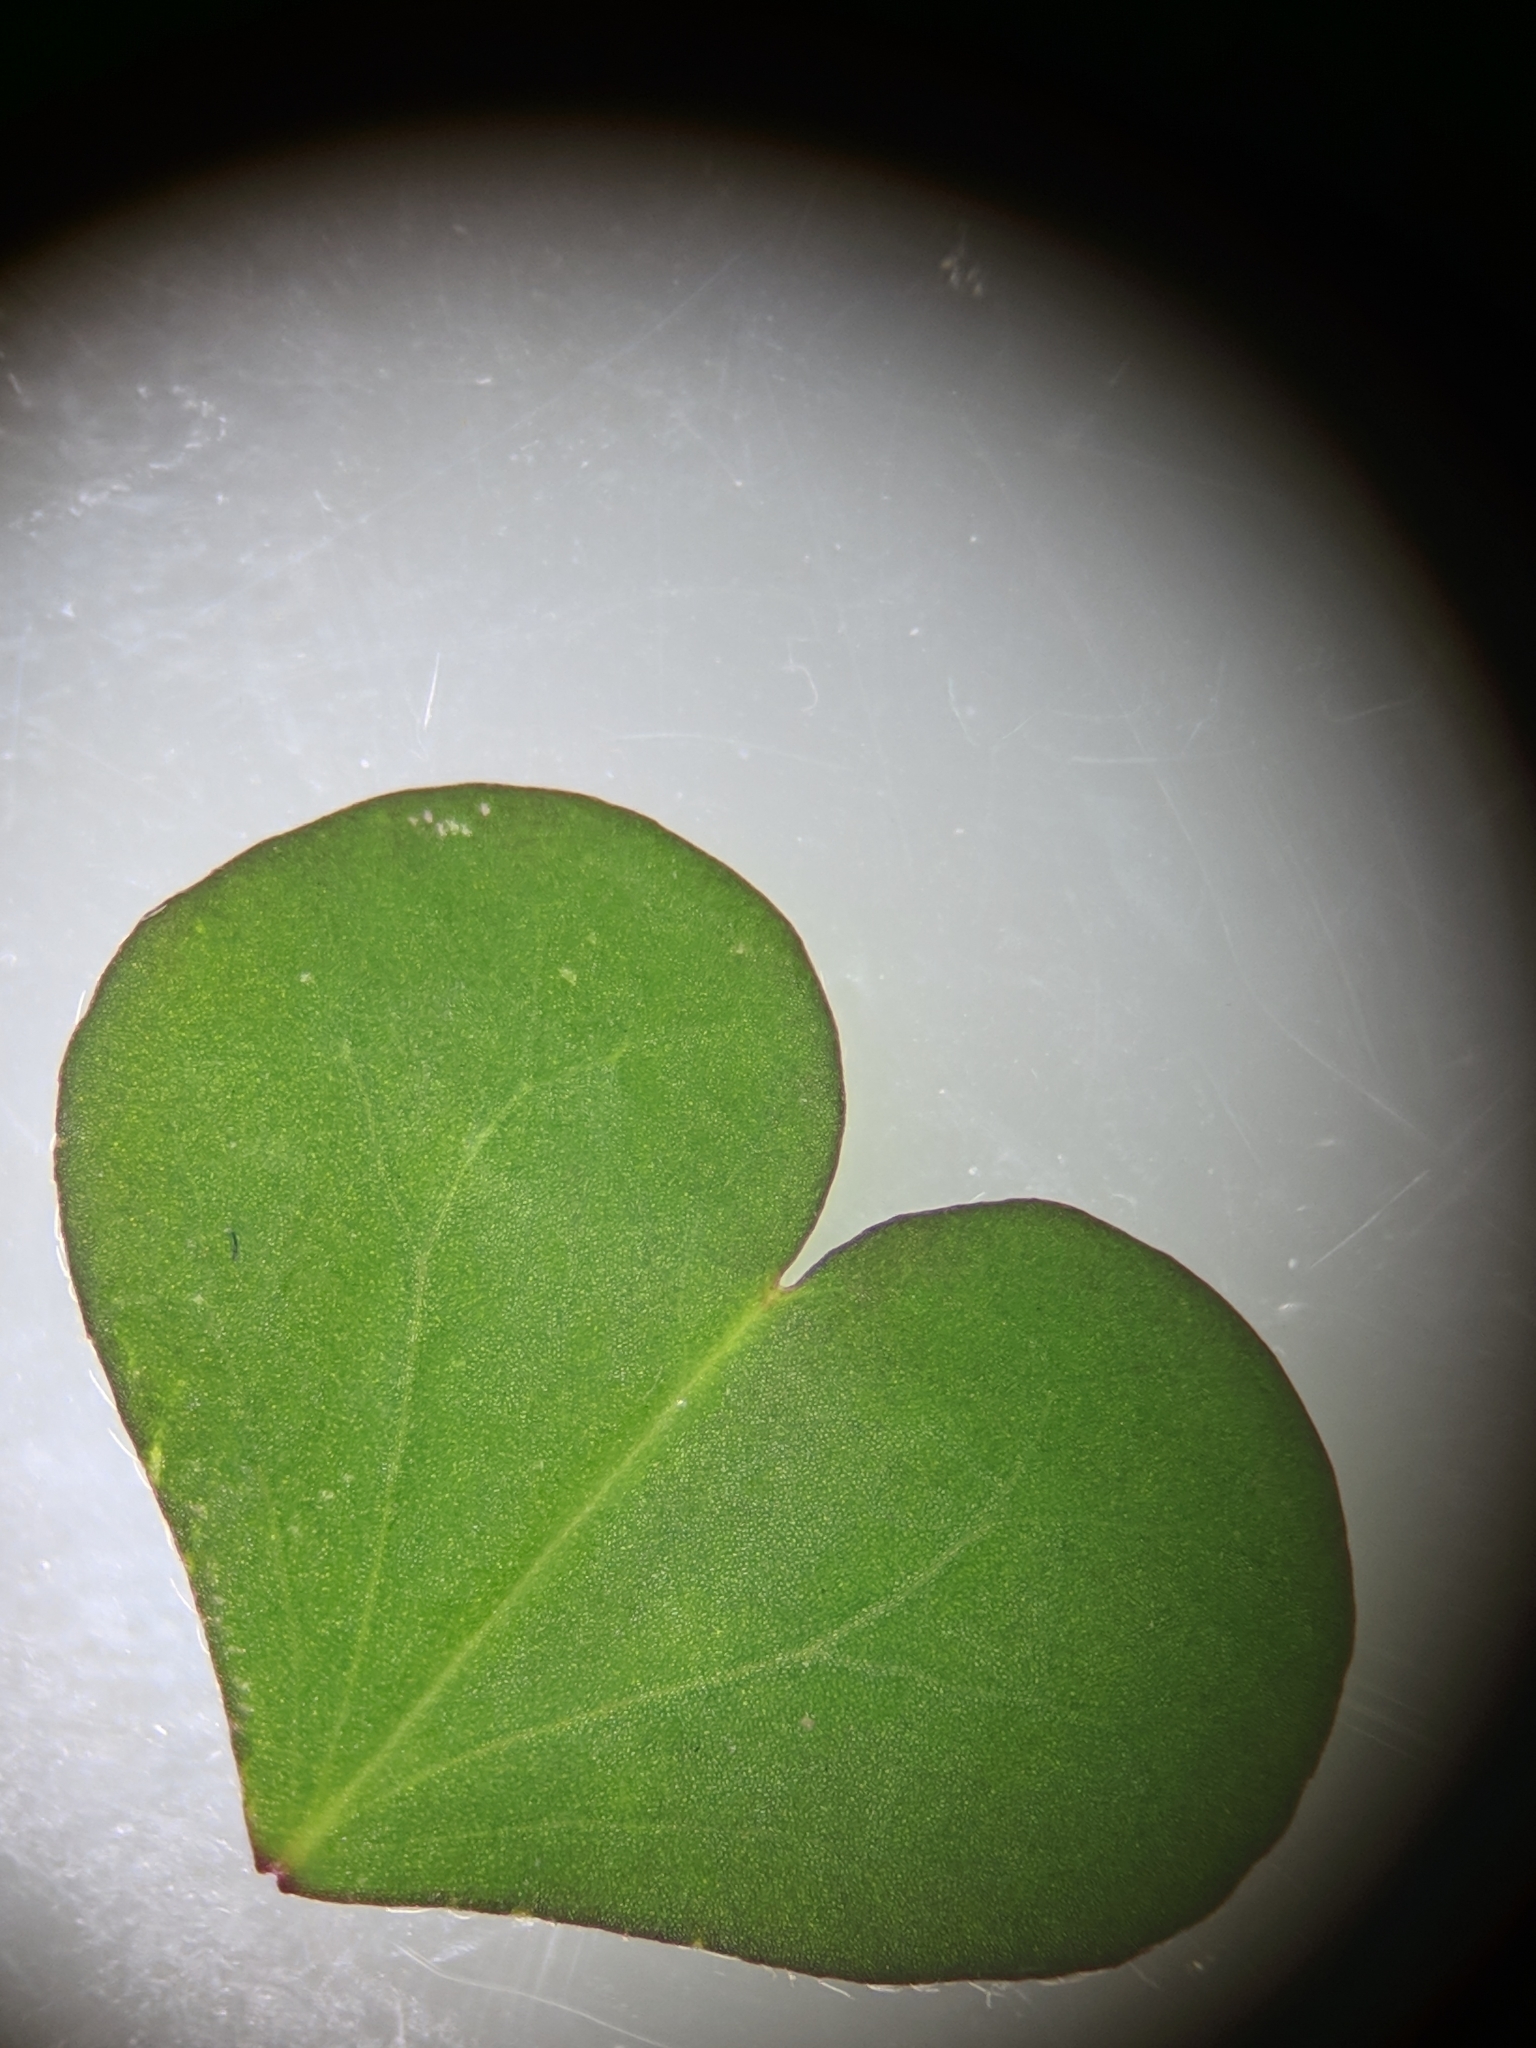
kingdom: Plantae
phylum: Tracheophyta
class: Magnoliopsida
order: Oxalidales
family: Oxalidaceae
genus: Oxalis
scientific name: Oxalis corniculata
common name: Procumbent yellow-sorrel
